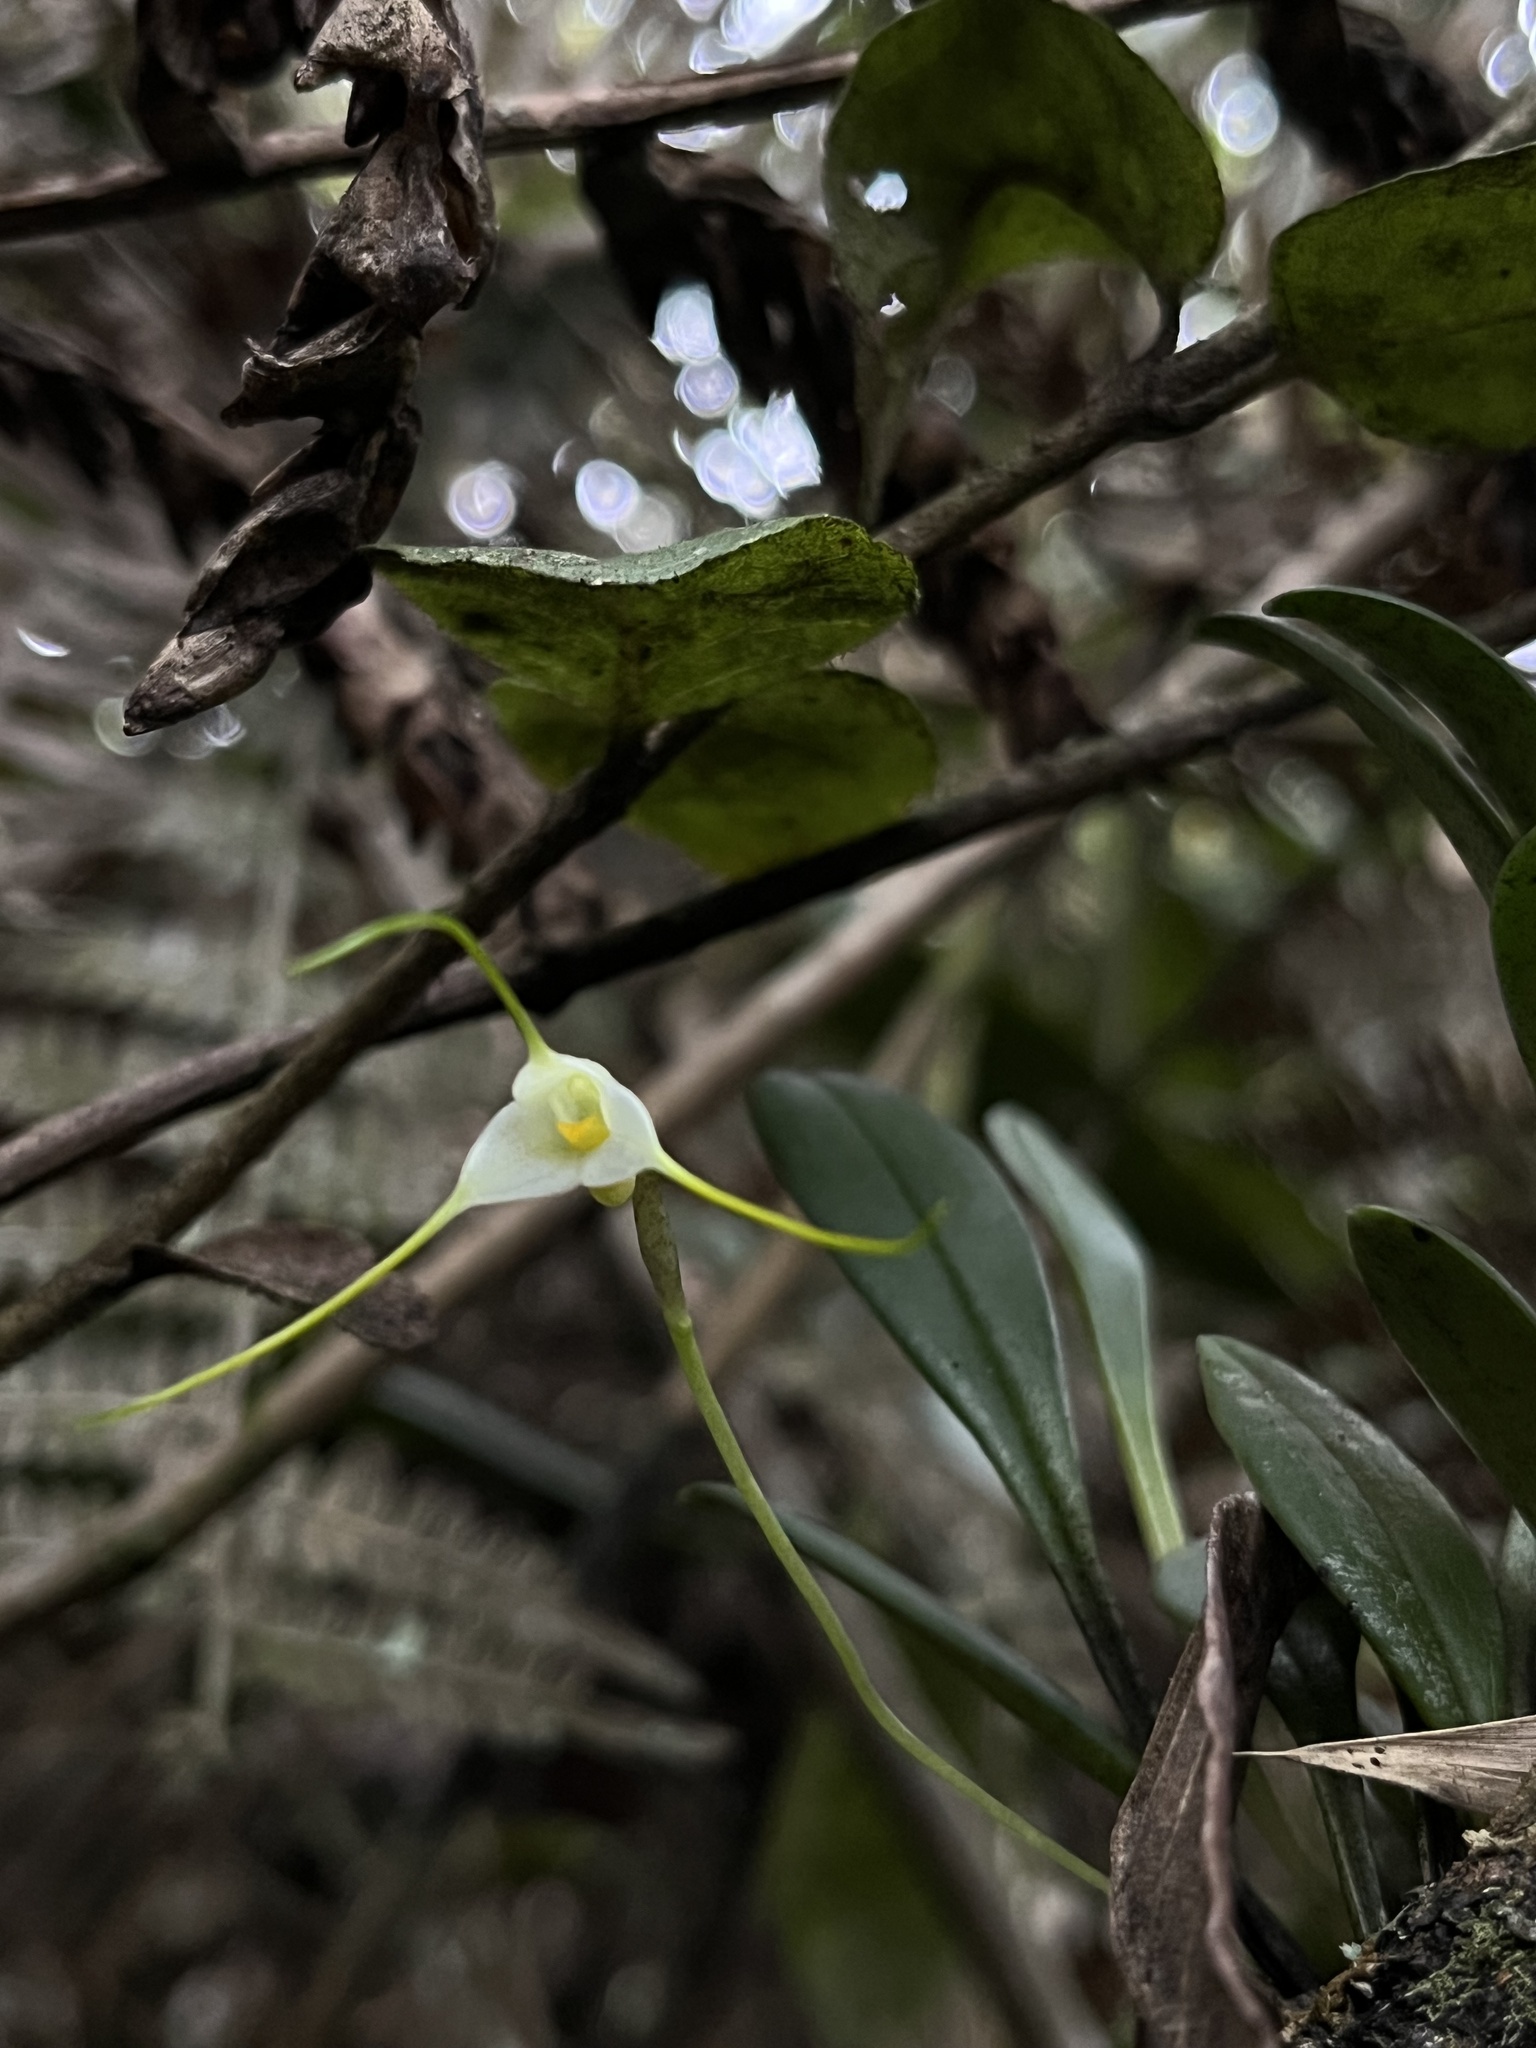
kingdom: Plantae
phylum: Tracheophyta
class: Liliopsida
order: Asparagales
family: Orchidaceae
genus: Masdevallia
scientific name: Masdevallia strumifera
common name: Goiter carrying masdevallia
